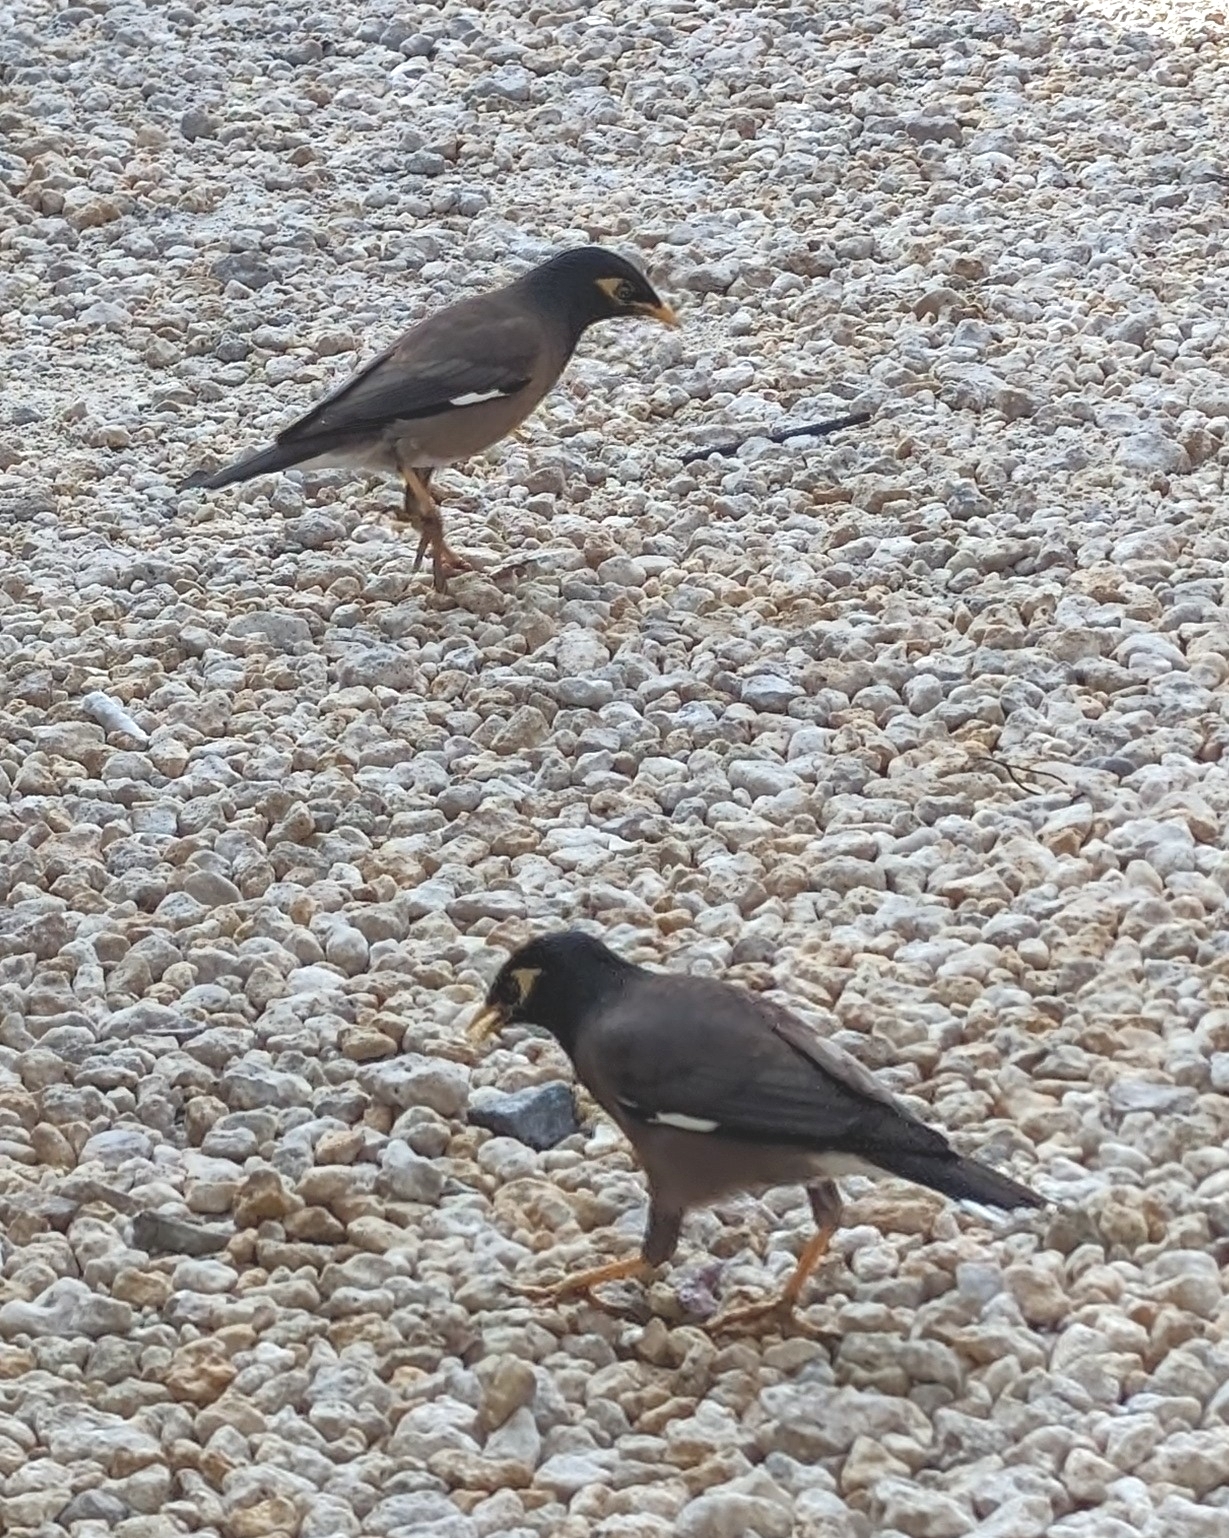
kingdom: Animalia
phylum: Chordata
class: Aves
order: Passeriformes
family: Sturnidae
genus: Acridotheres
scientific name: Acridotheres tristis
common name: Common myna
